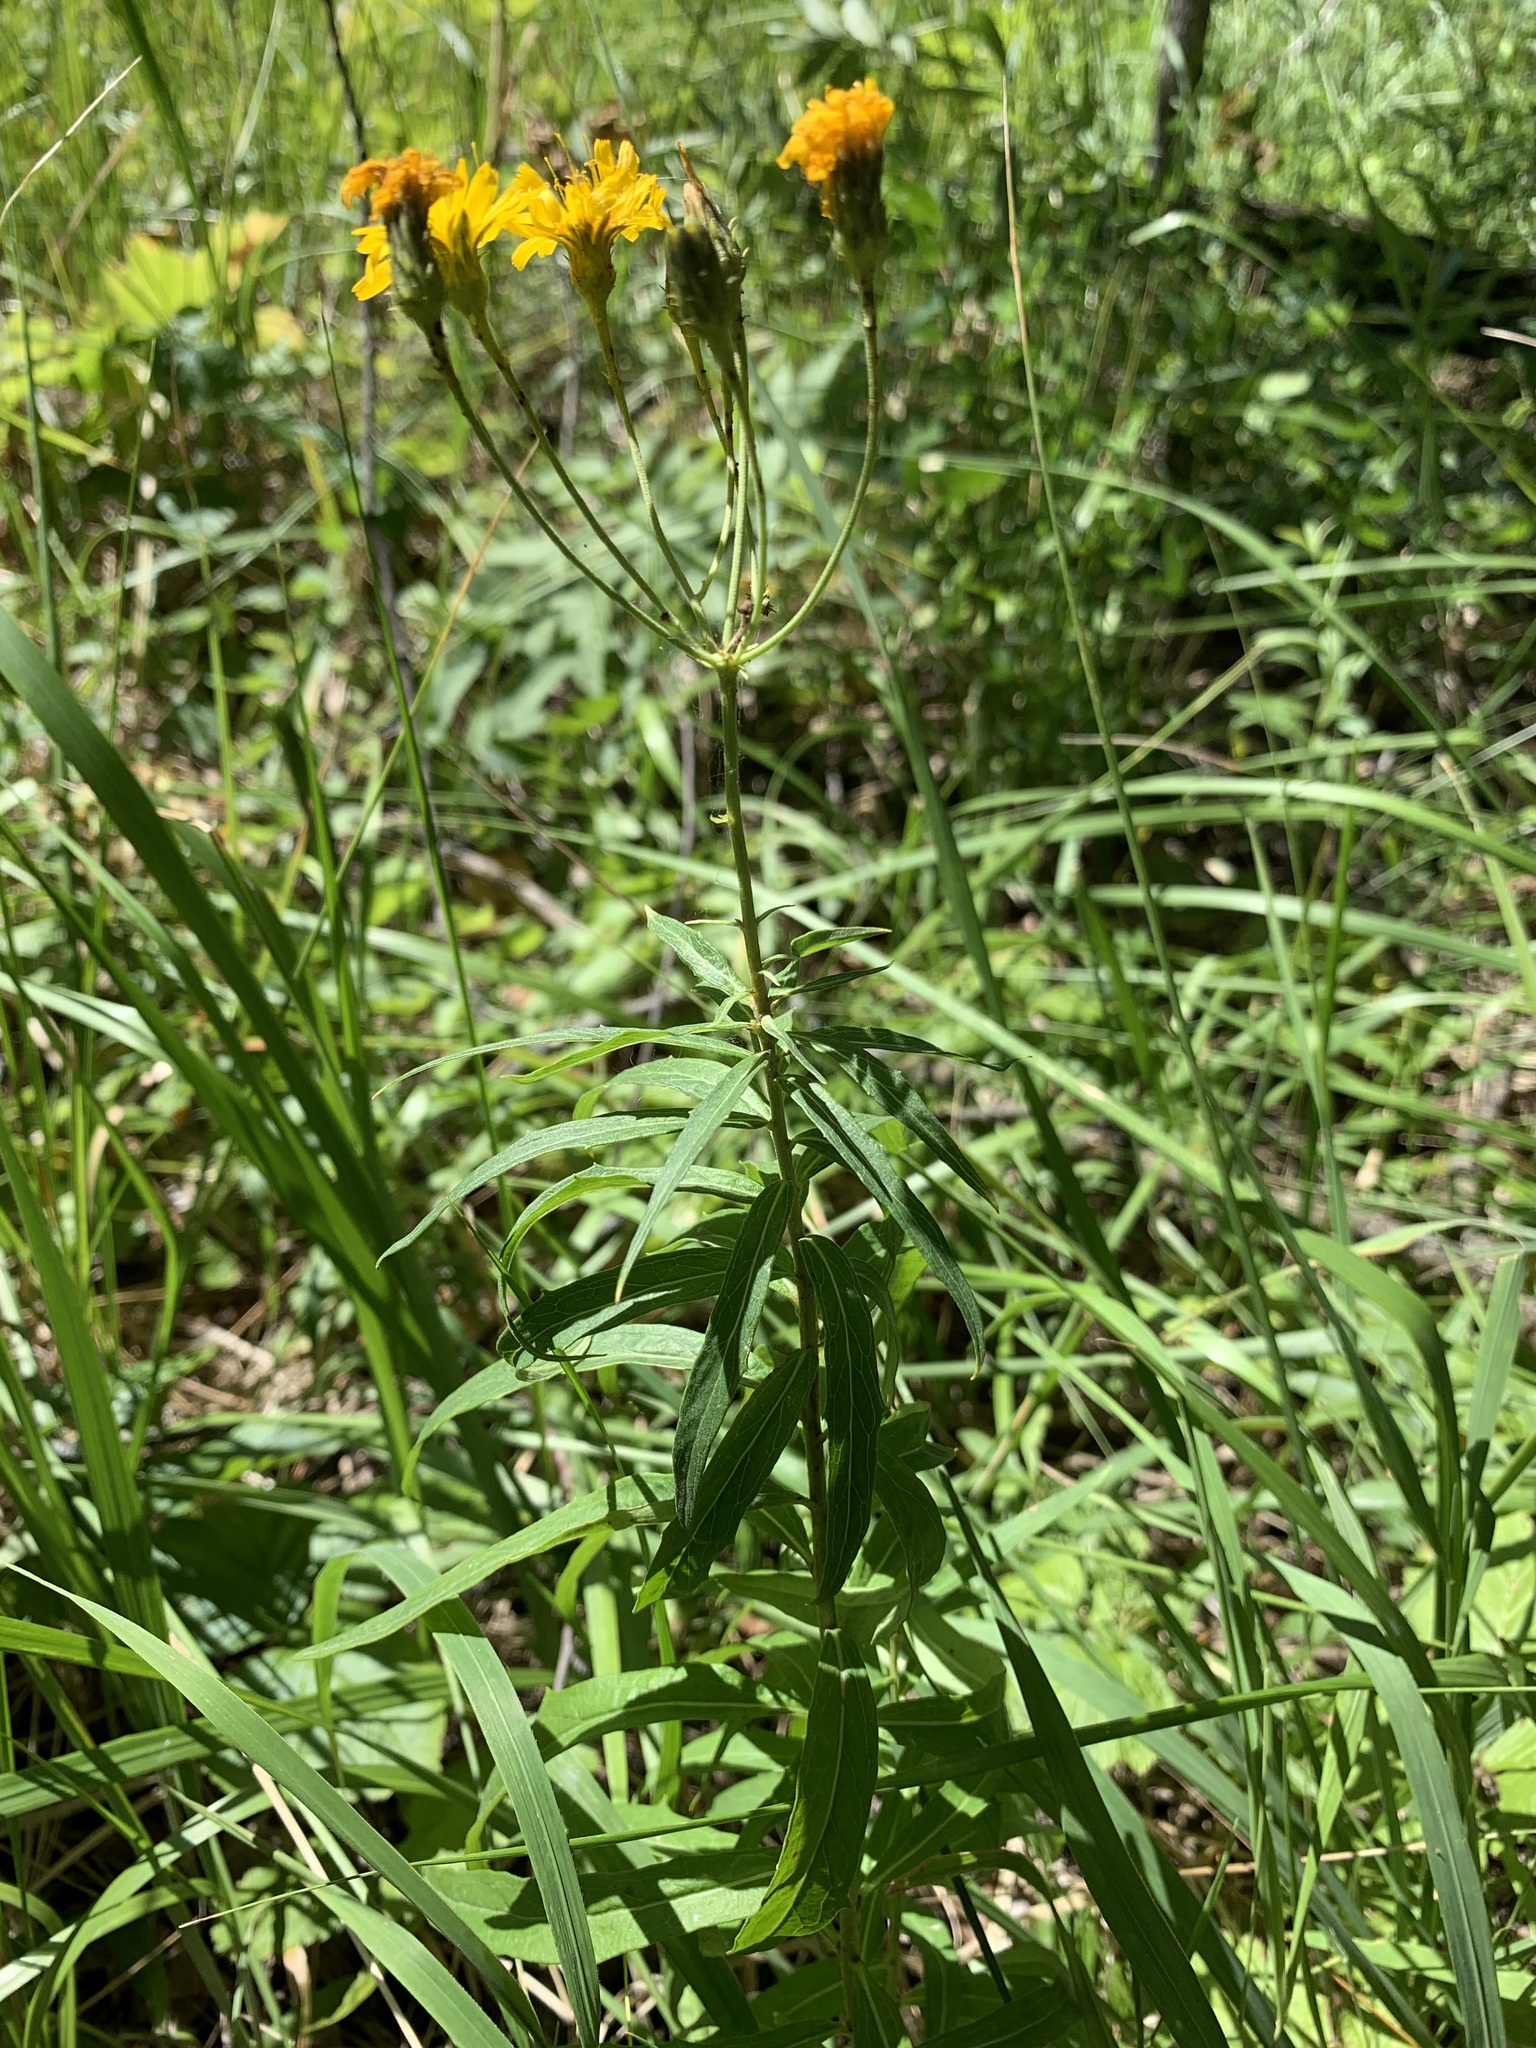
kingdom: Plantae
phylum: Tracheophyta
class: Magnoliopsida
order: Asterales
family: Asteraceae
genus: Hieracium
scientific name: Hieracium umbellatum
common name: Northern hawkweed
